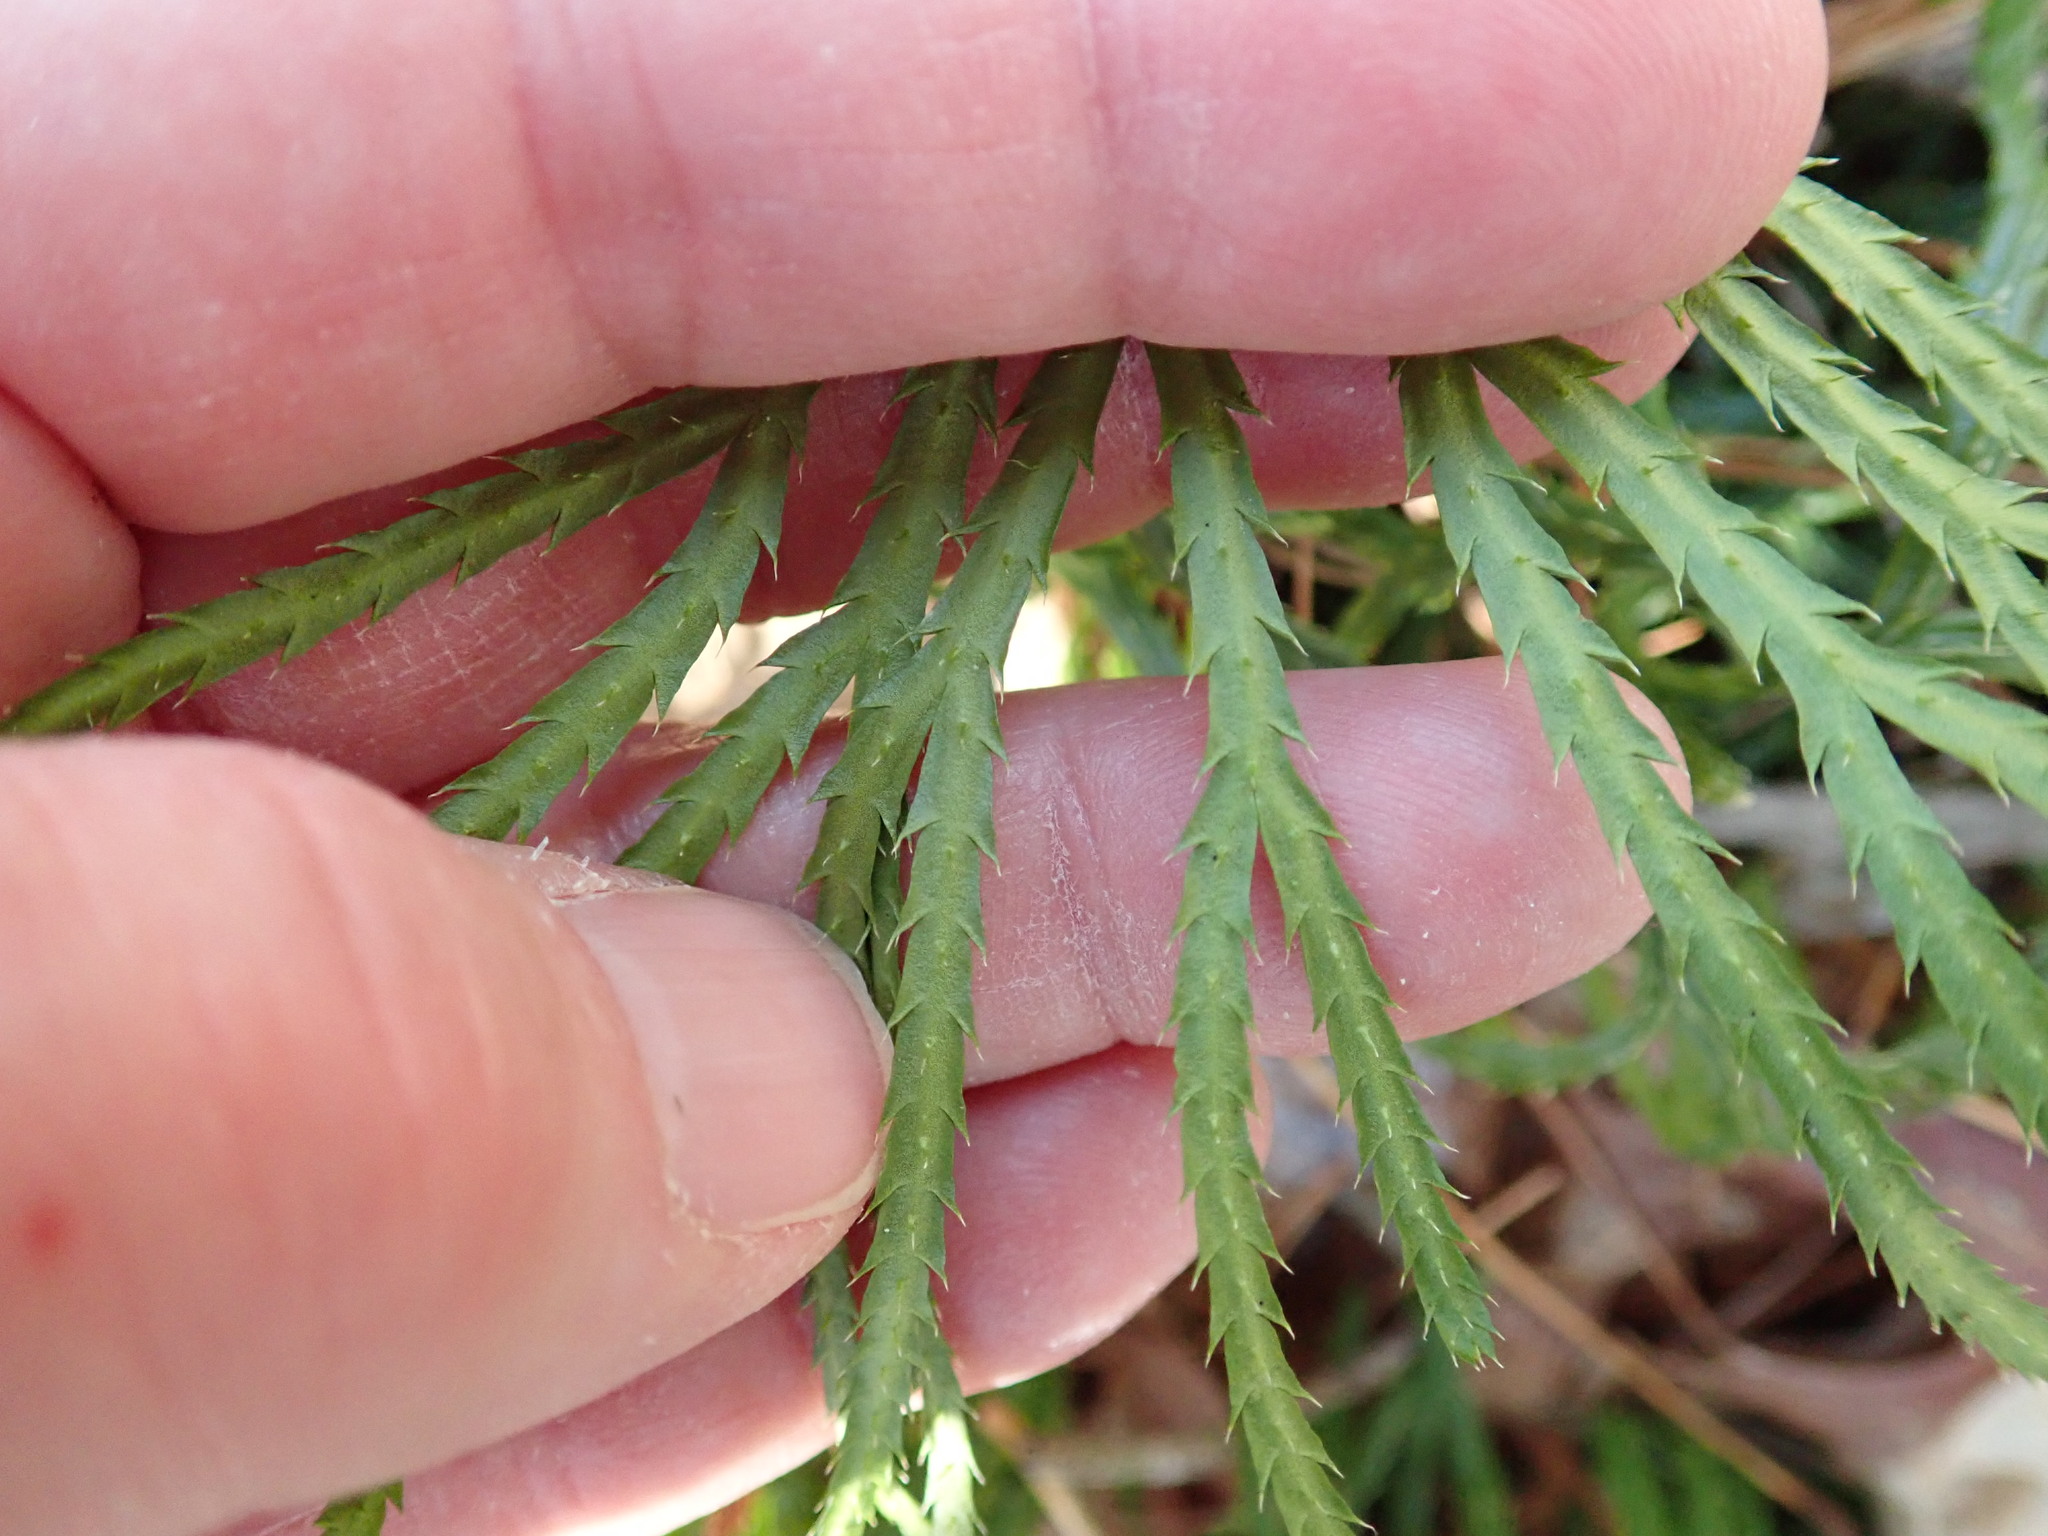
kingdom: Plantae
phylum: Tracheophyta
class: Lycopodiopsida
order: Lycopodiales
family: Lycopodiaceae
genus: Diphasiastrum
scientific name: Diphasiastrum digitatum
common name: Southern running-pine
